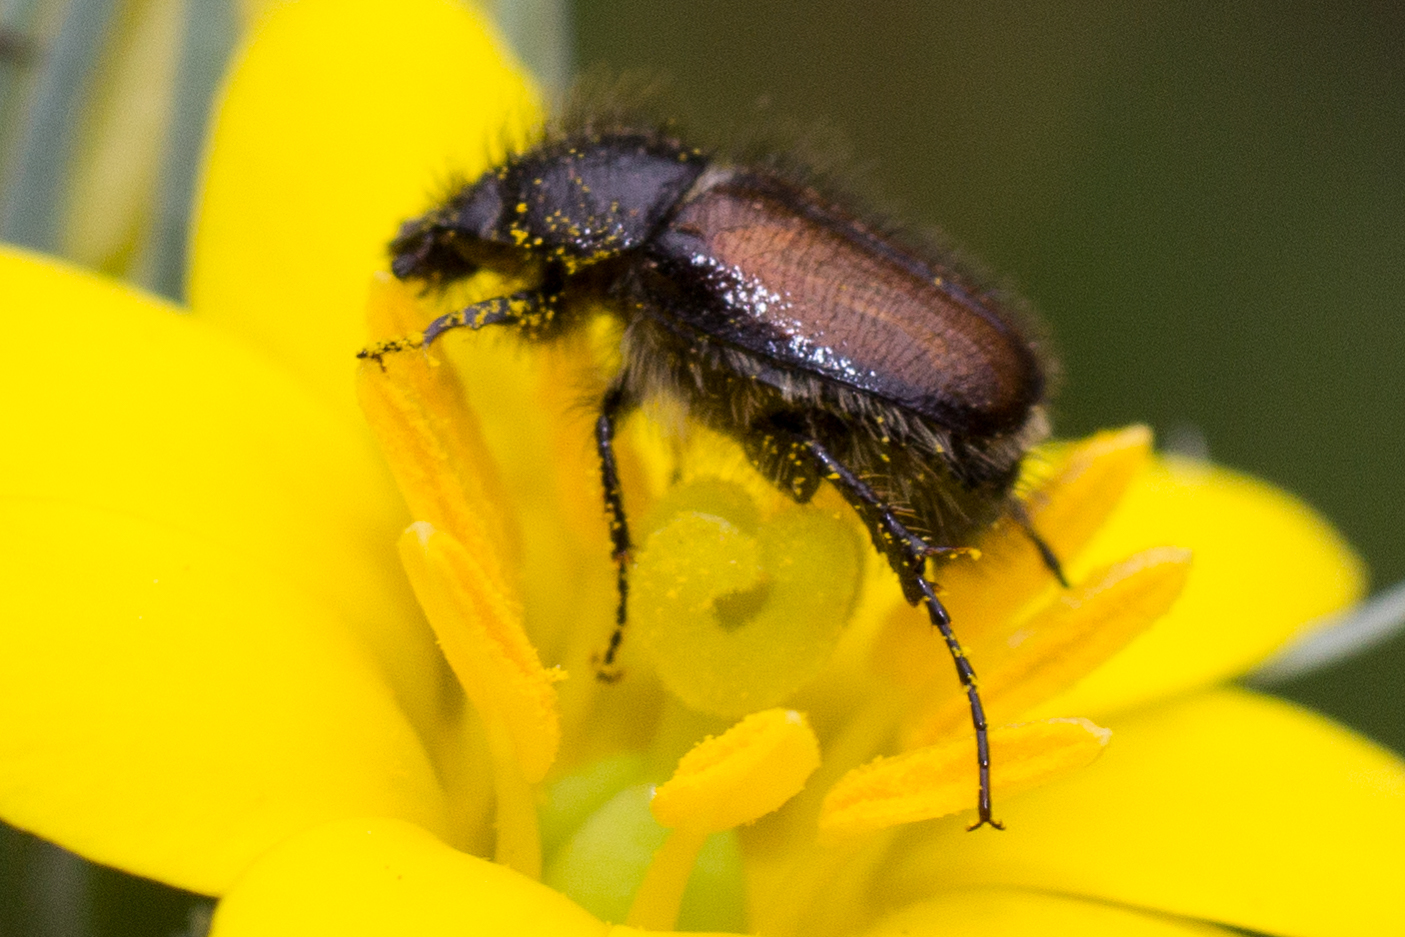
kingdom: Animalia
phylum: Arthropoda
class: Insecta
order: Coleoptera
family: Scarabaeidae
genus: Chasmatopterus
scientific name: Chasmatopterus villosulus
